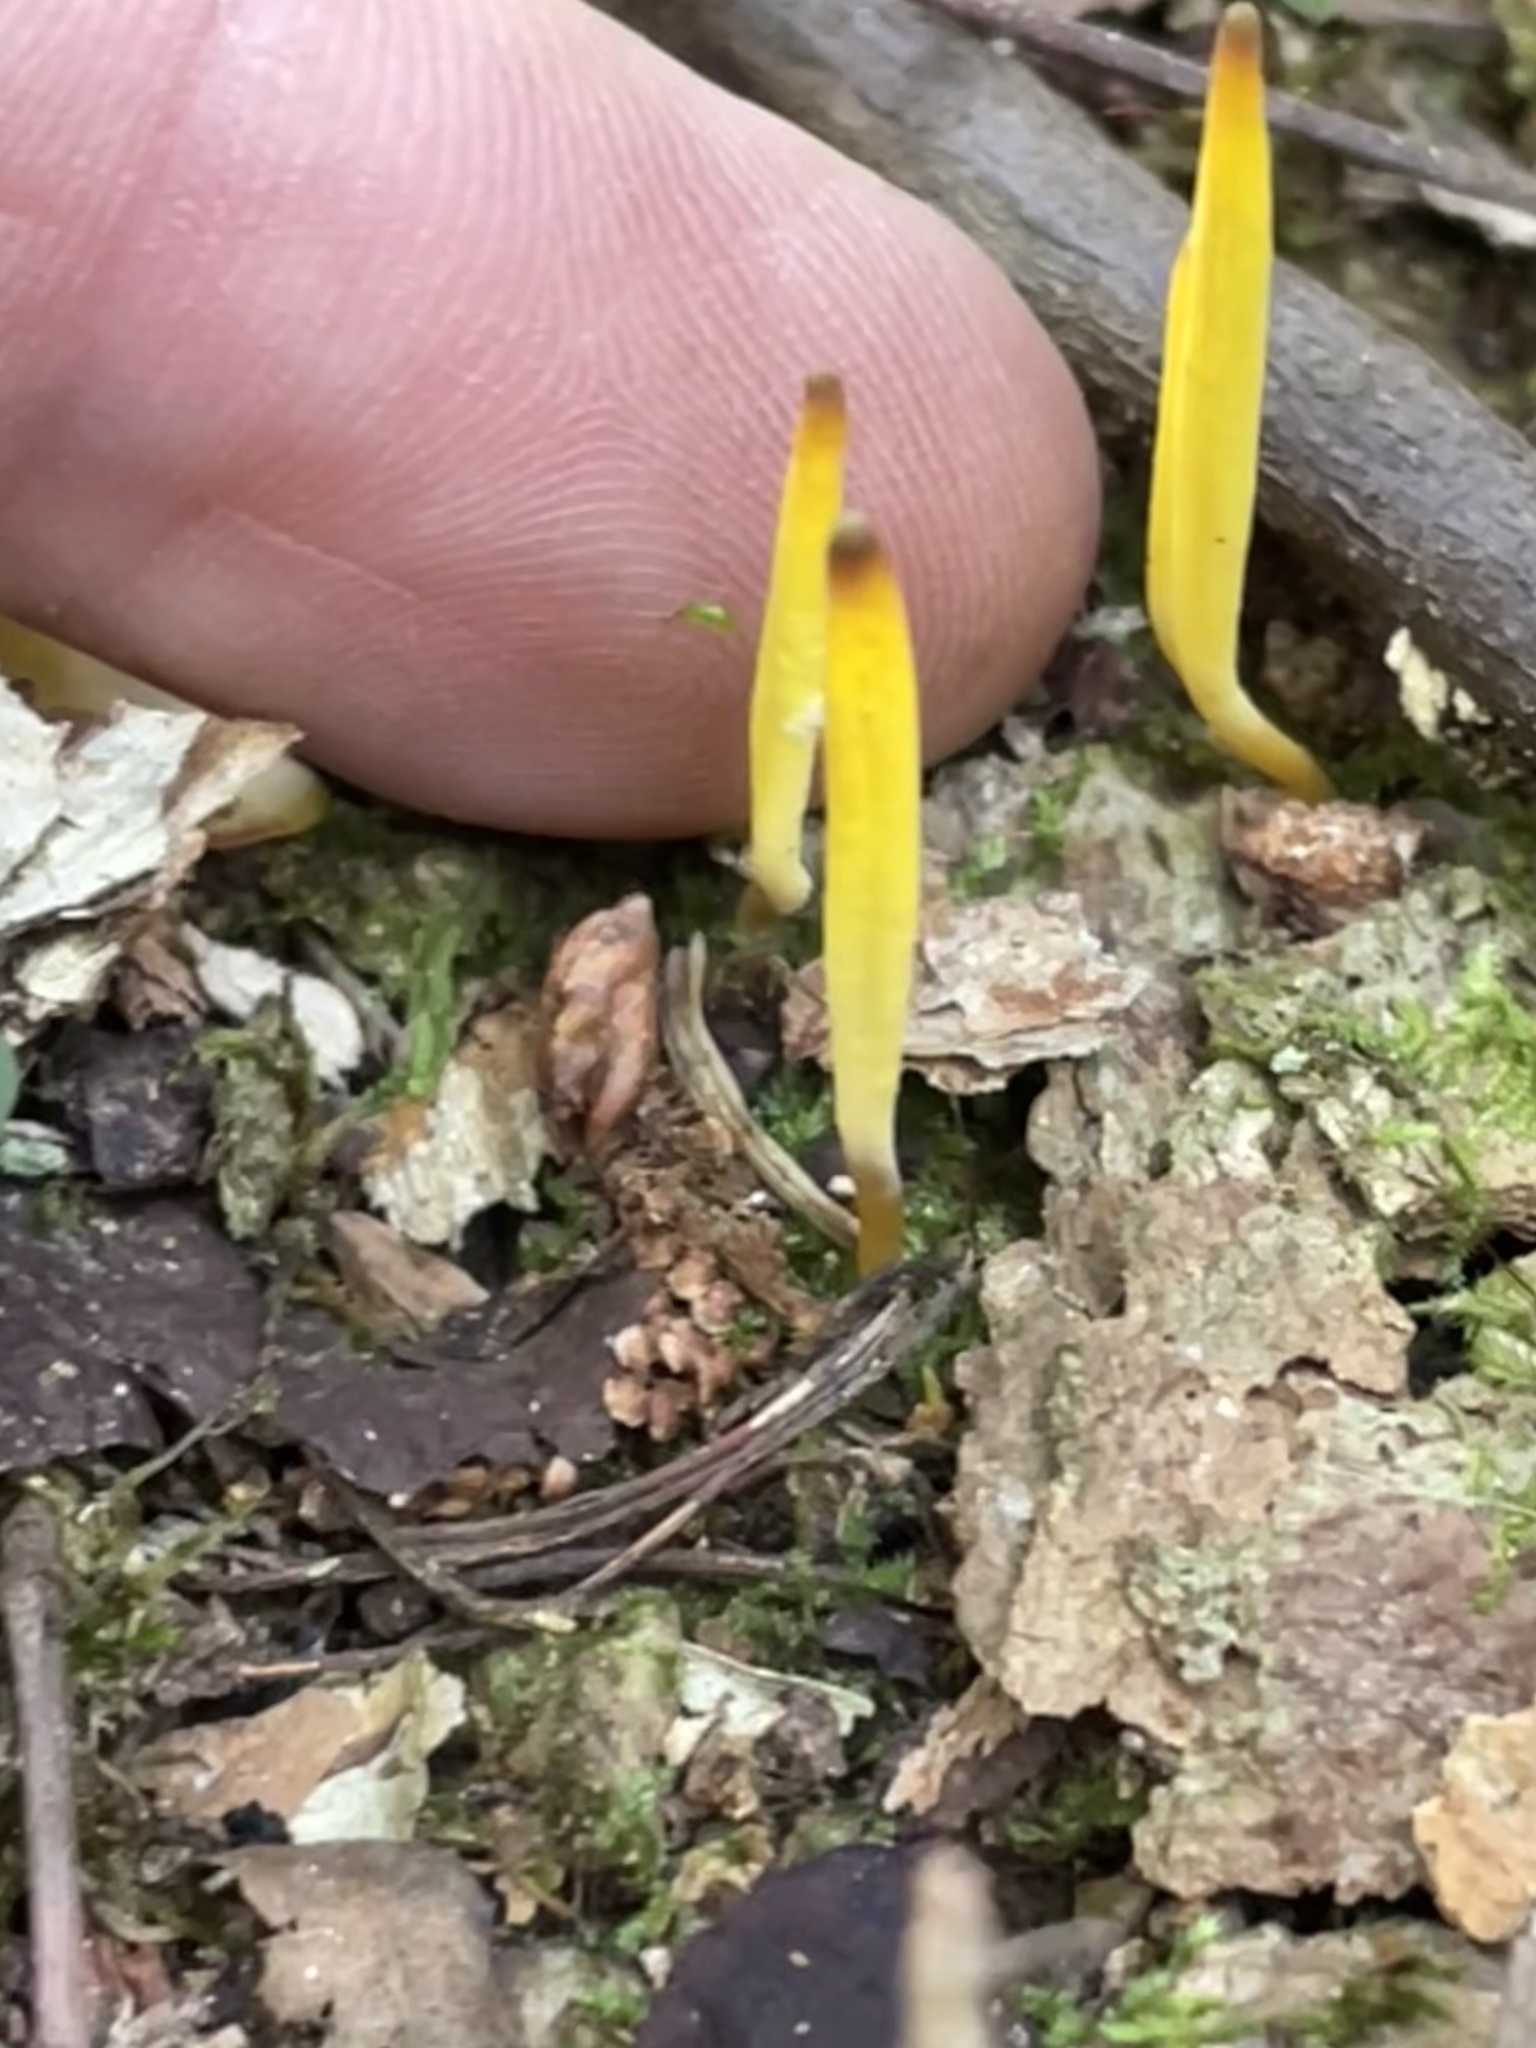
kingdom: Fungi
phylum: Basidiomycota
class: Agaricomycetes
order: Agaricales
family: Clavariaceae
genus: Clavulinopsis
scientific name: Clavulinopsis fusiformis
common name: Golden spindles
